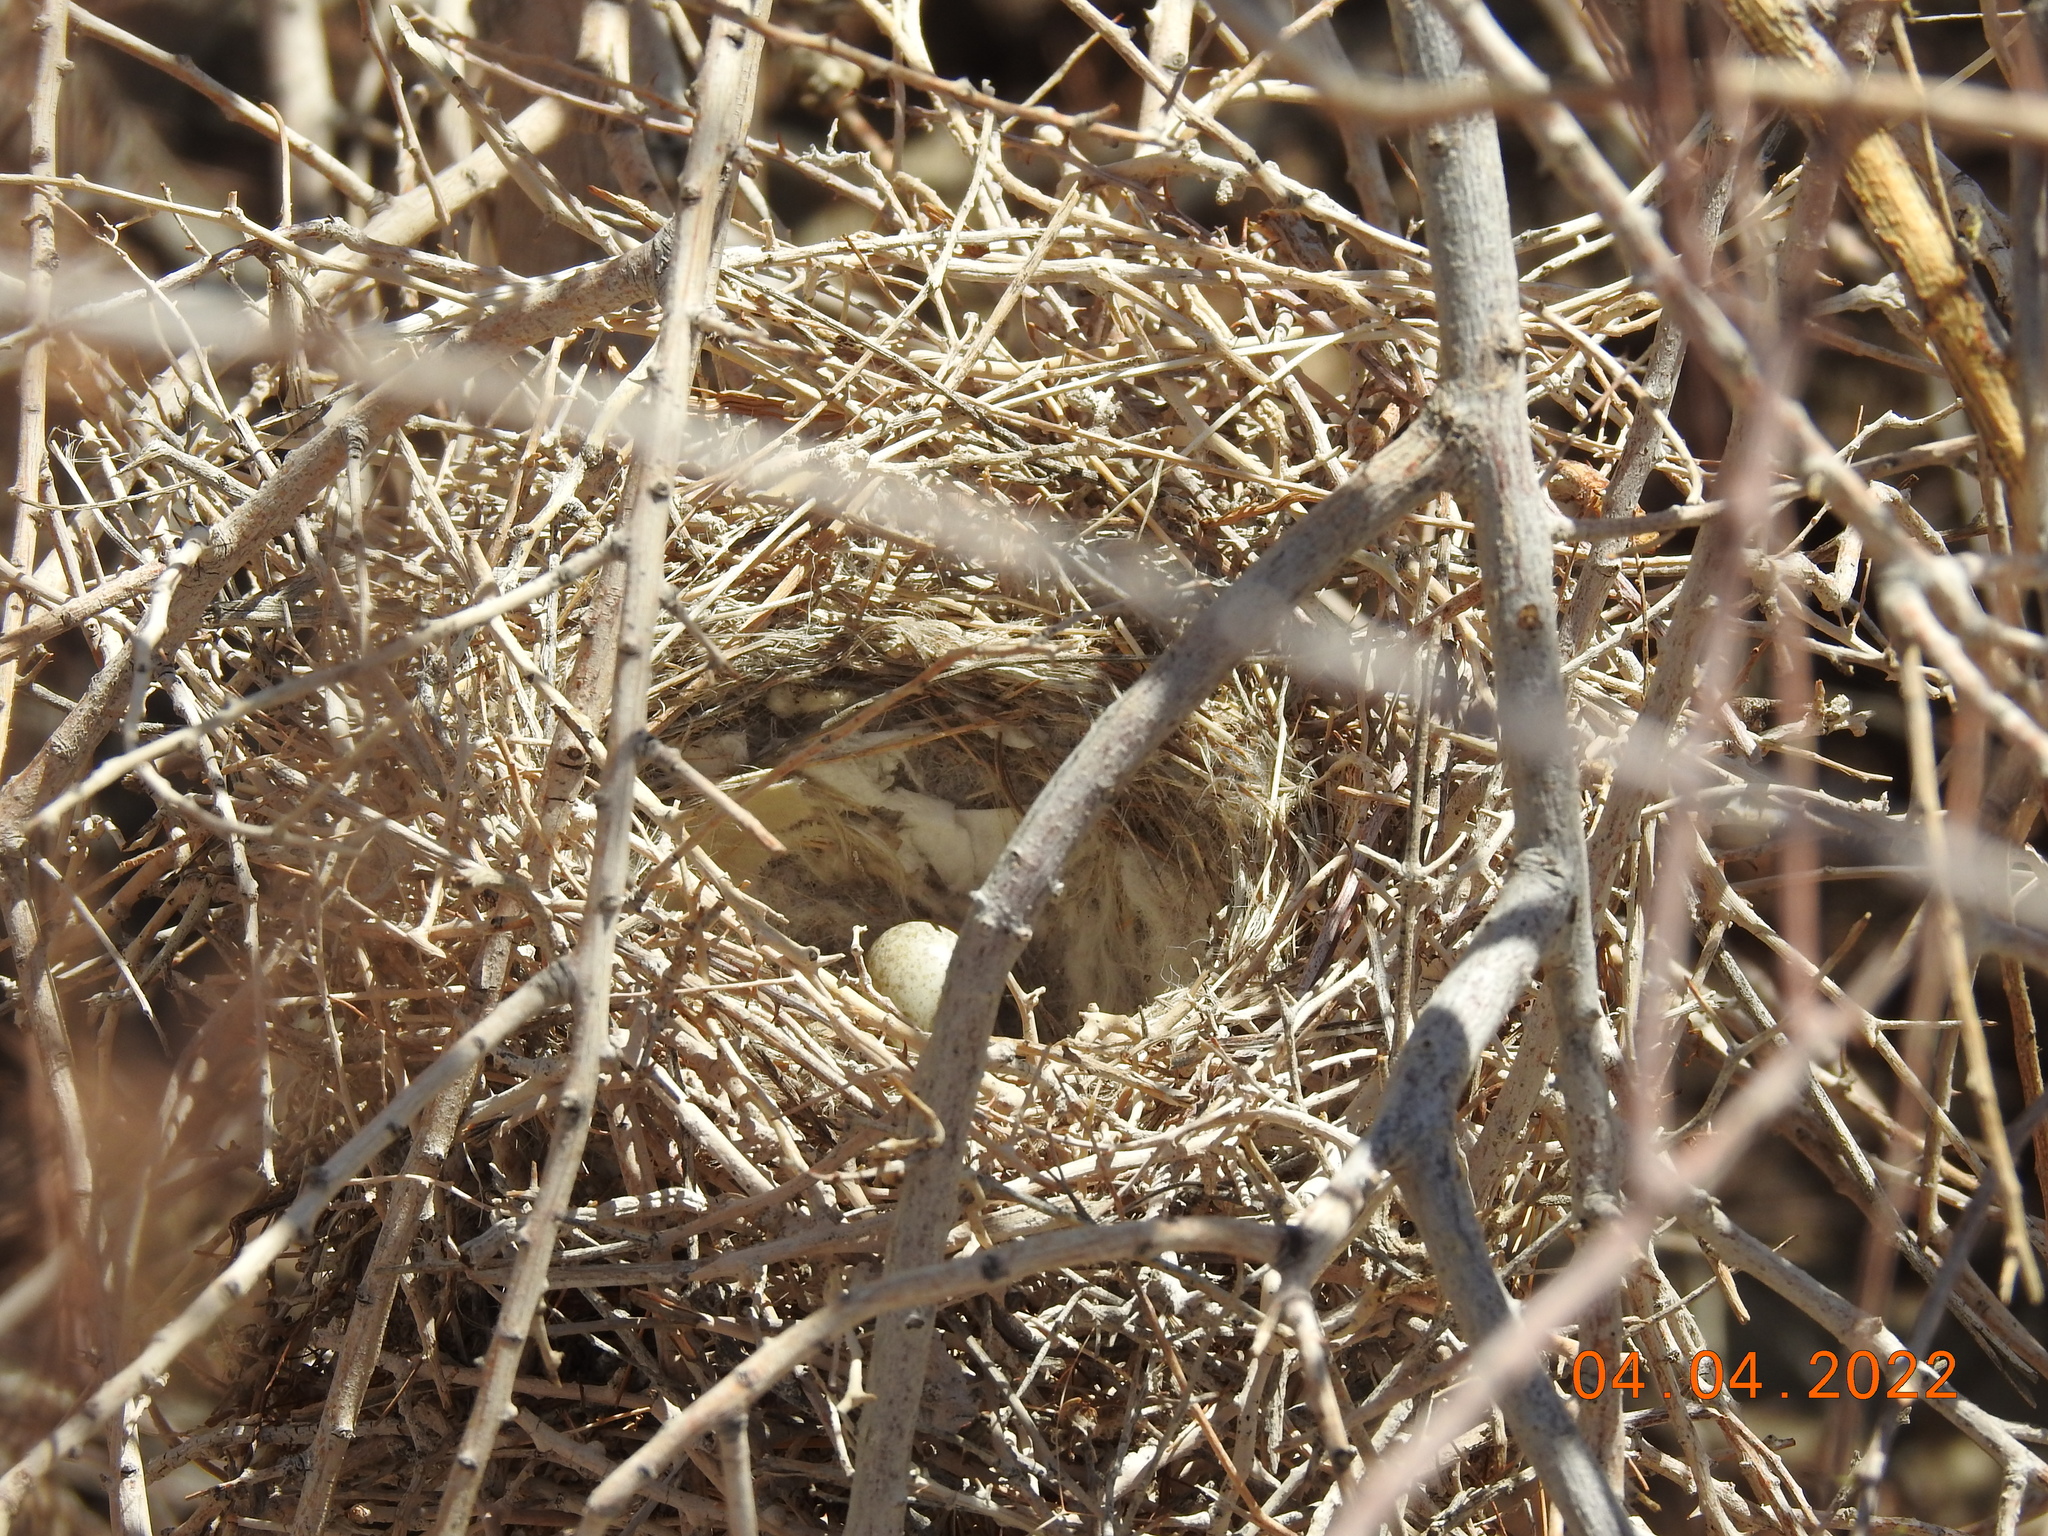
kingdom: Animalia
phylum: Chordata
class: Aves
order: Passeriformes
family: Laniidae
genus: Lanius
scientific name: Lanius ludovicianus
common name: Loggerhead shrike
